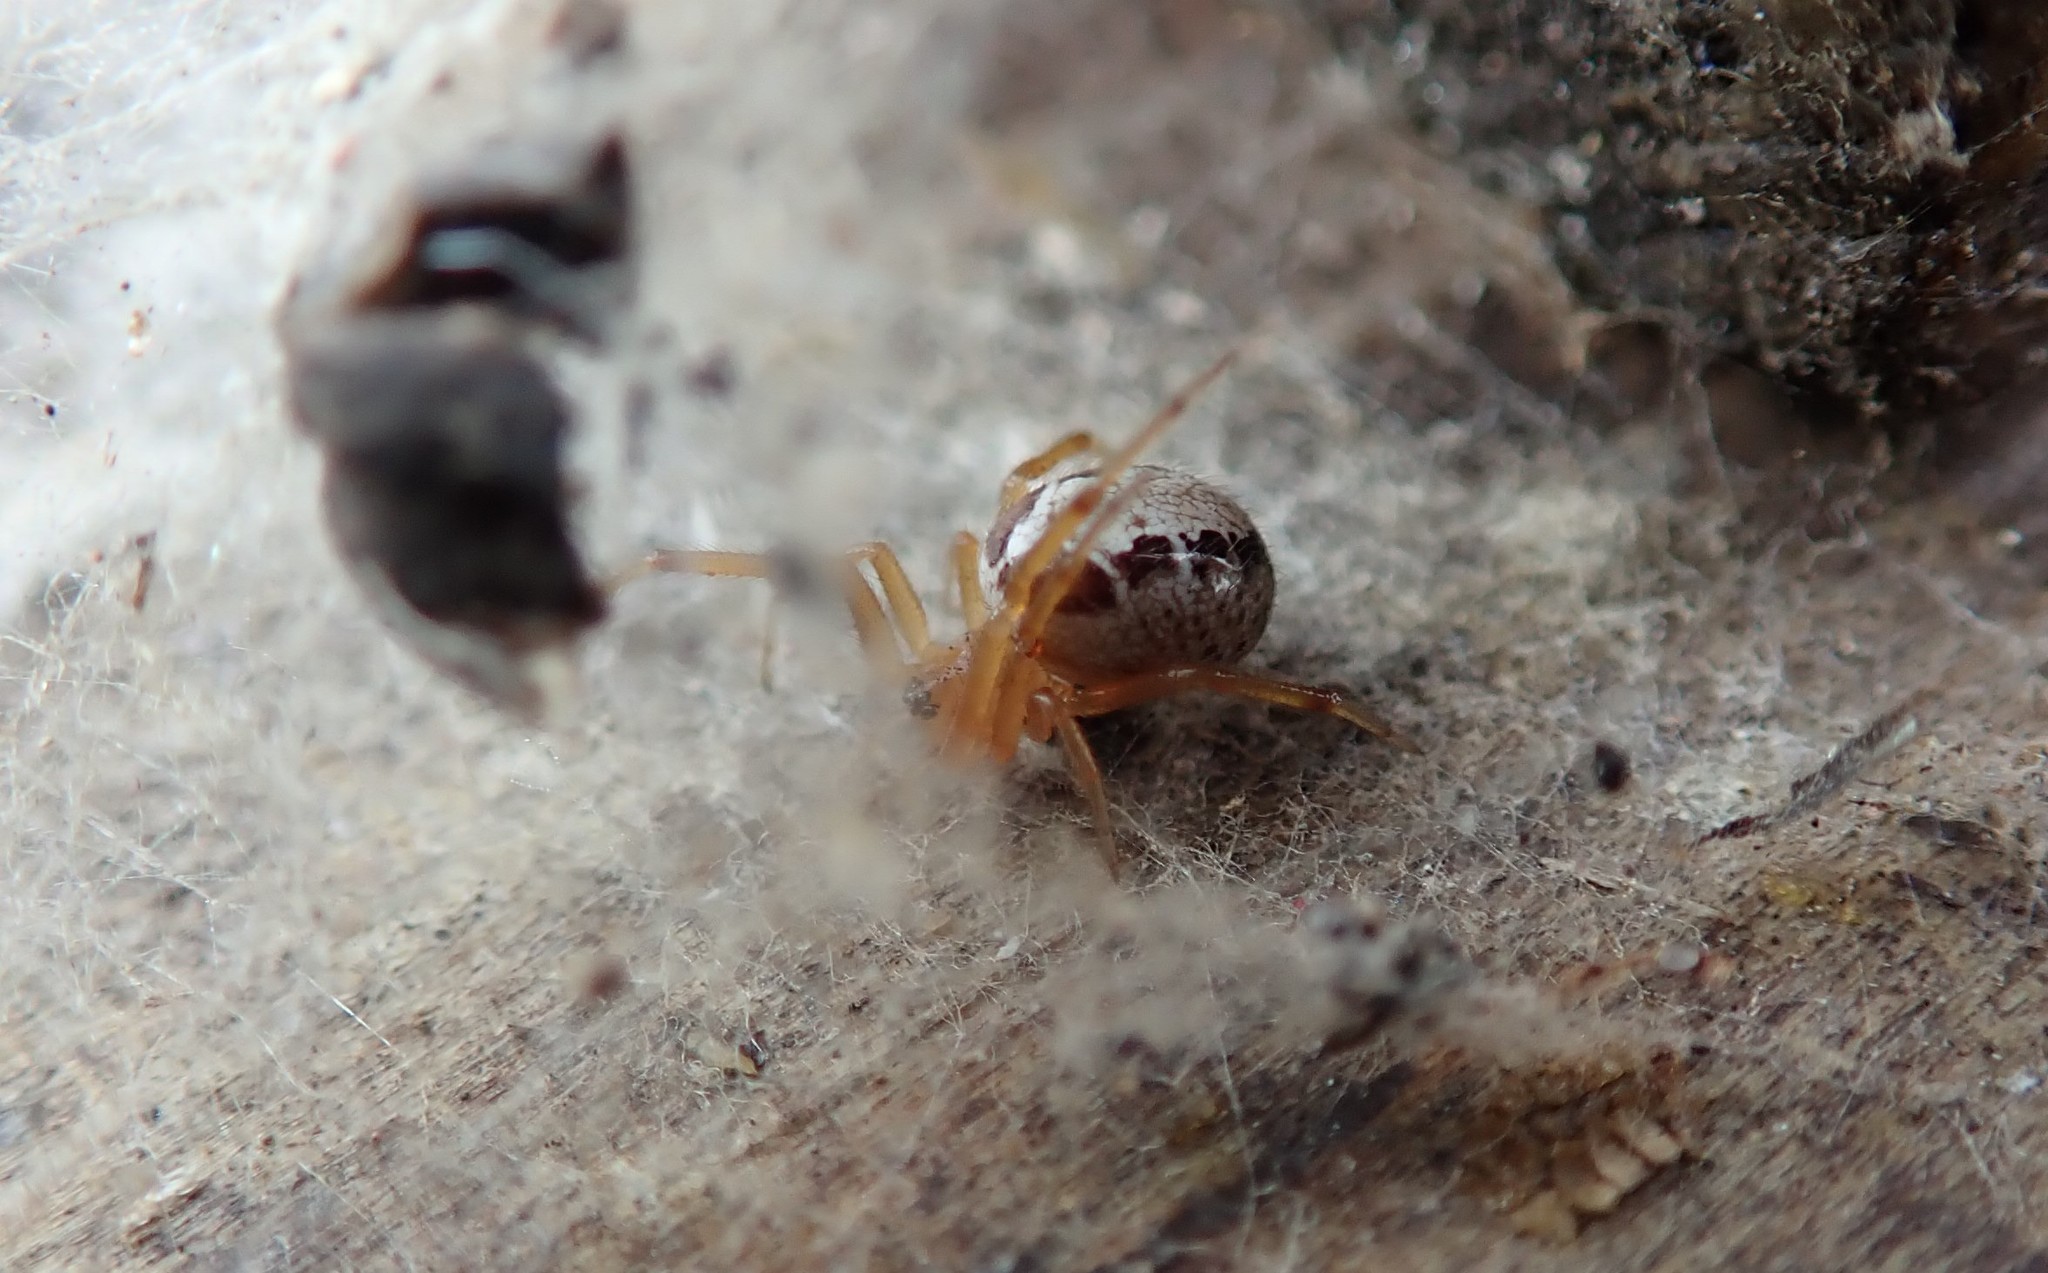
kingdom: Animalia
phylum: Arthropoda
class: Arachnida
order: Araneae
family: Theridiidae
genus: Steatoda
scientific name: Steatoda nobilis
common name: Cobweb weaver
